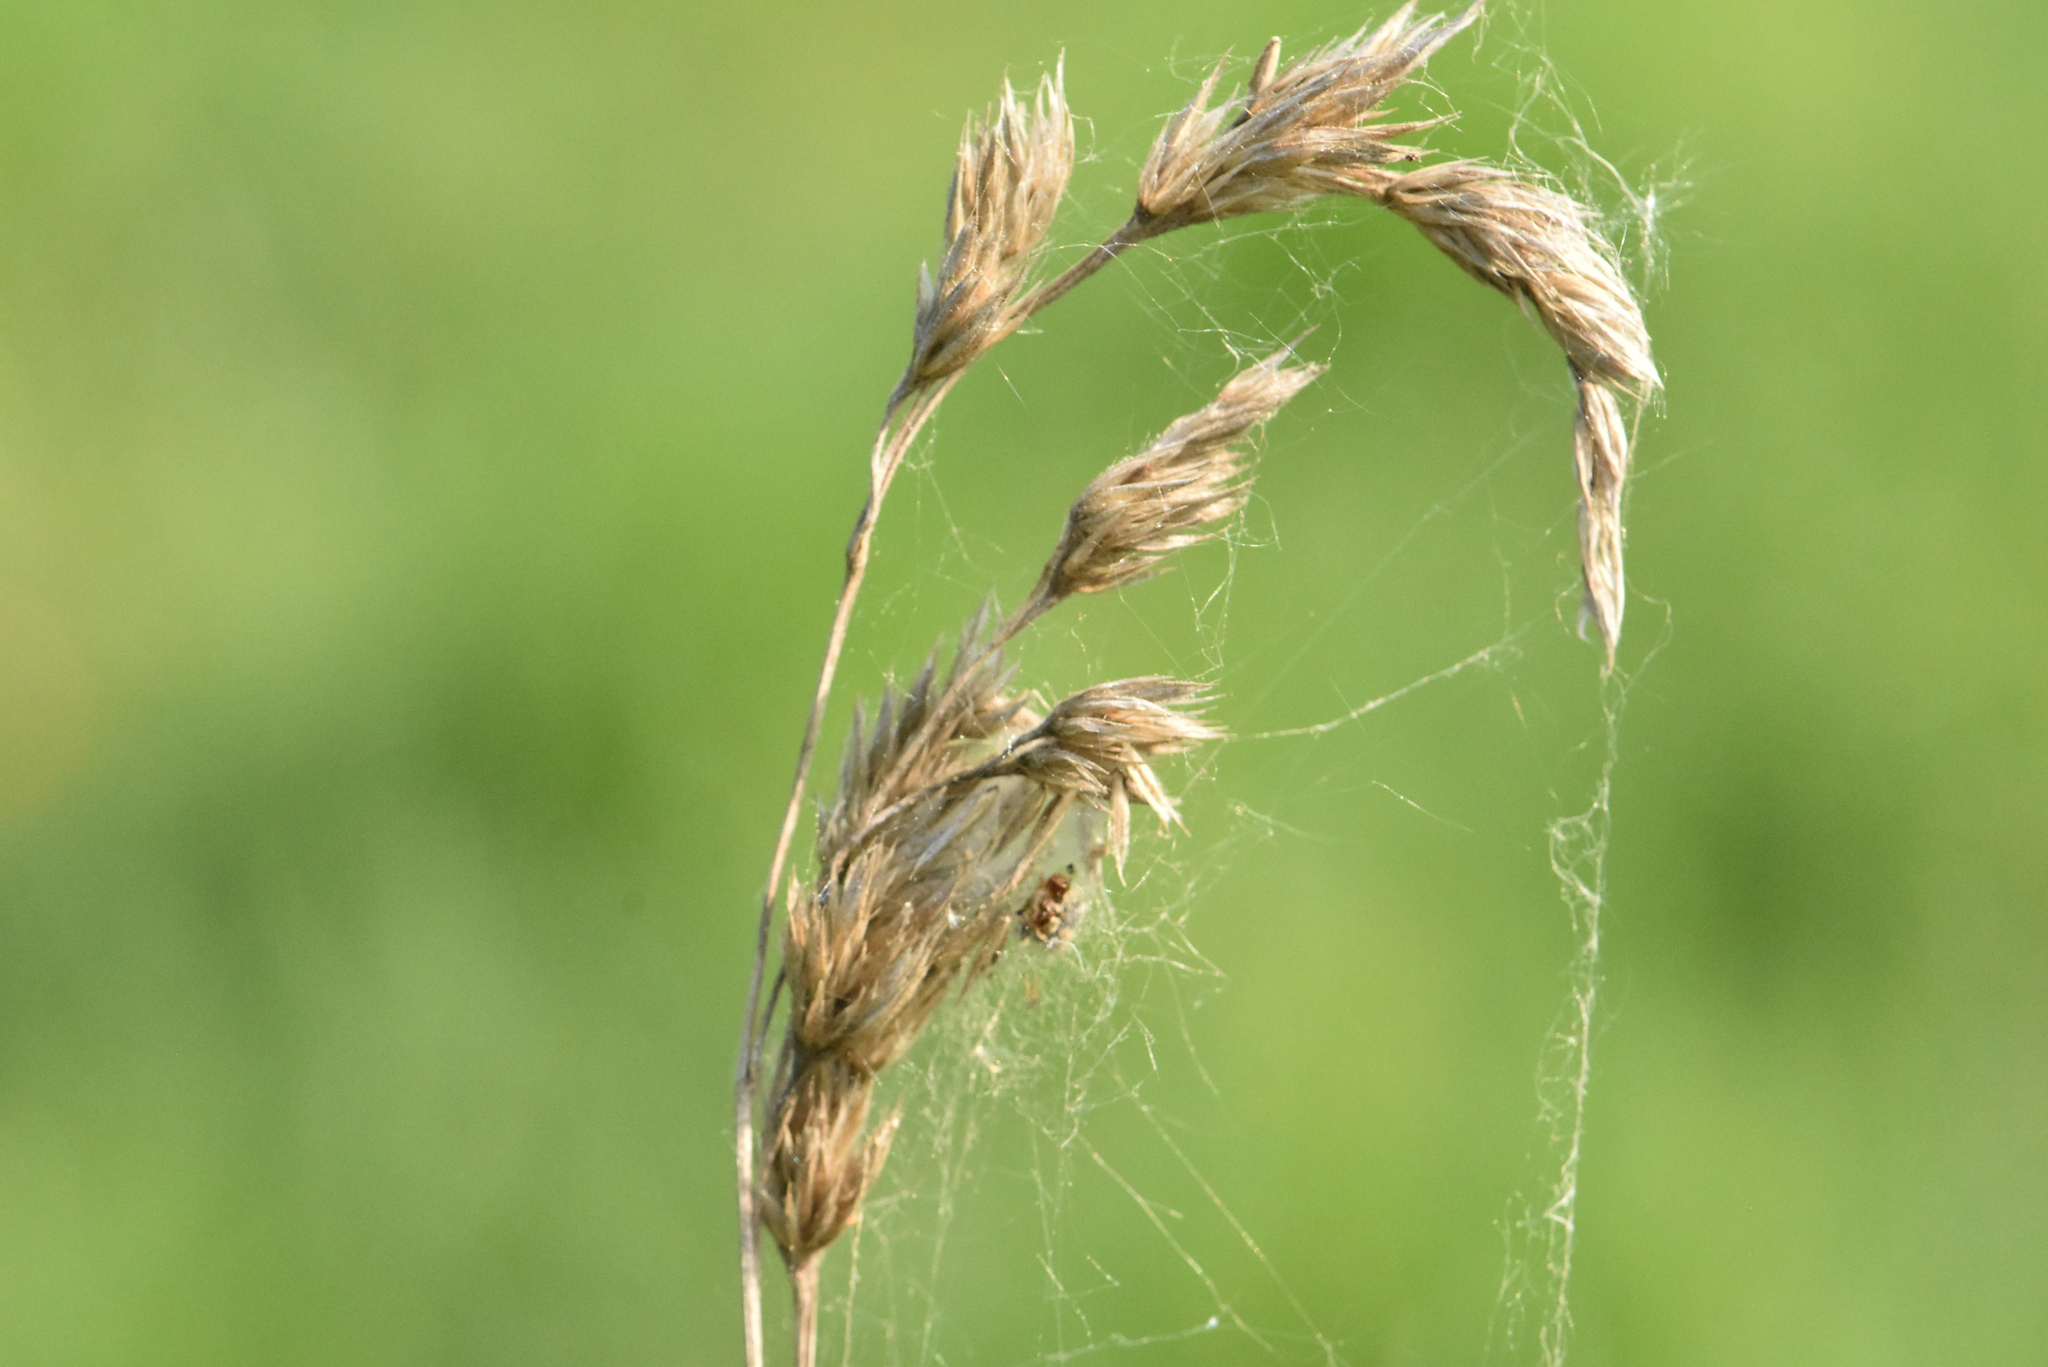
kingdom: Plantae
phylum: Tracheophyta
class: Liliopsida
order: Poales
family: Poaceae
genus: Dactylis
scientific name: Dactylis glomerata
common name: Orchardgrass
